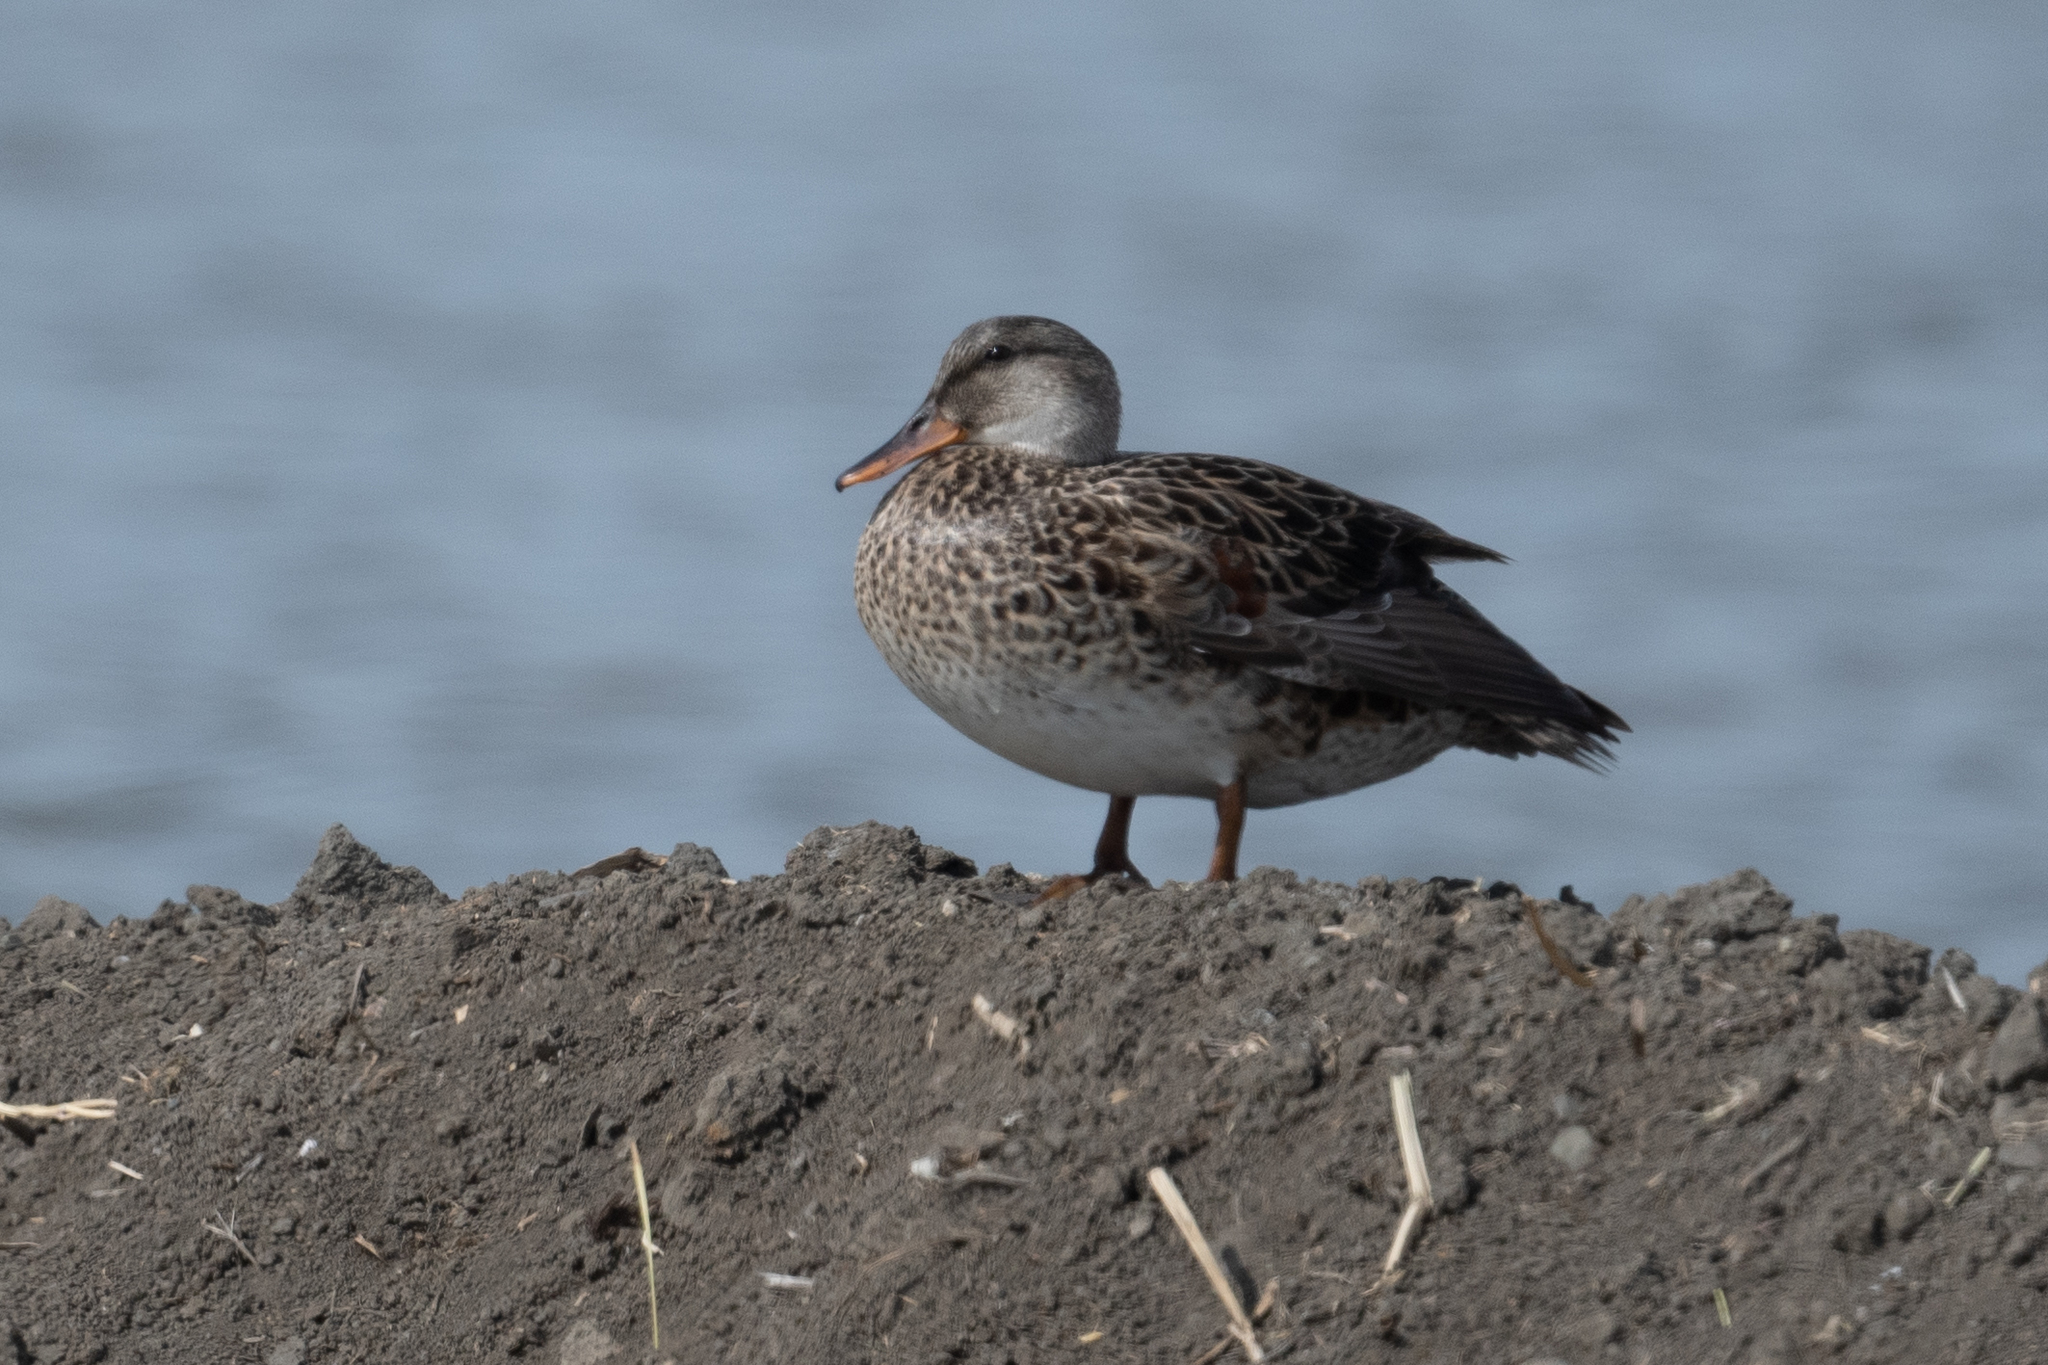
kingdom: Animalia
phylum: Chordata
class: Aves
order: Anseriformes
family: Anatidae
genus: Mareca
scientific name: Mareca strepera
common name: Gadwall
